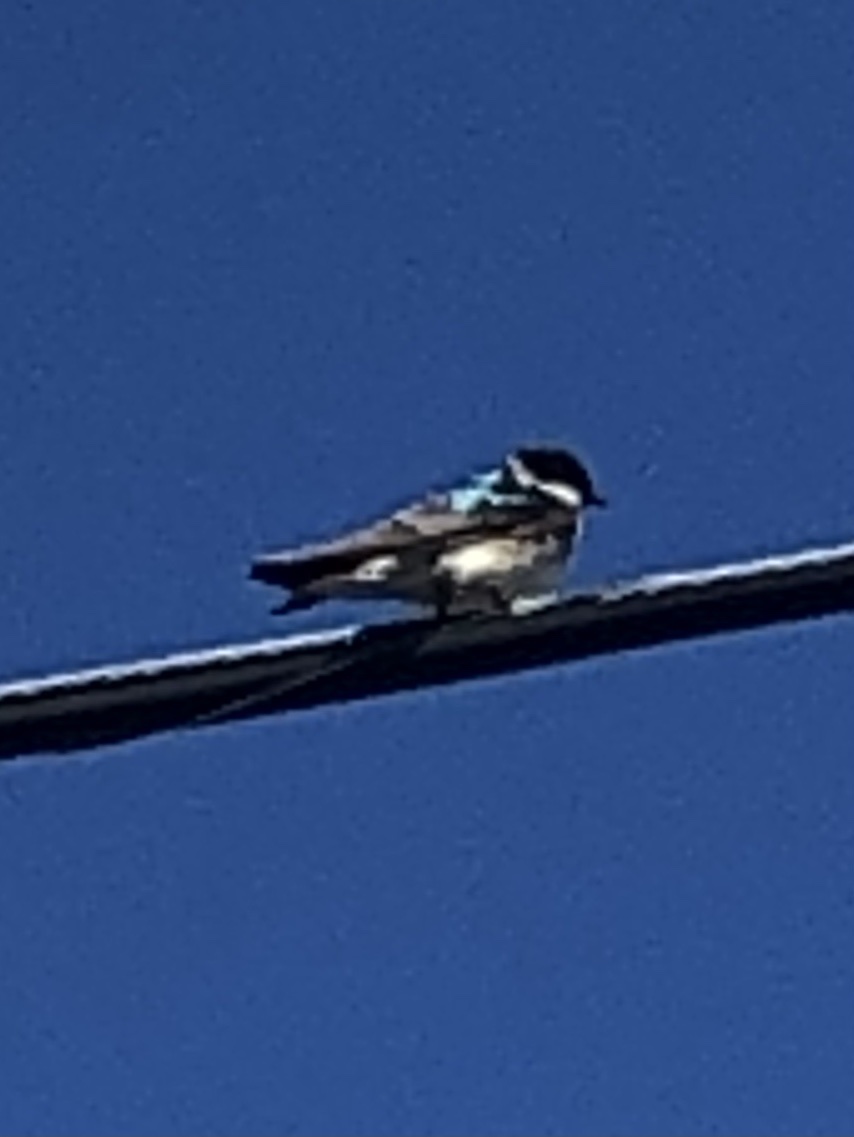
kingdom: Animalia
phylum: Chordata
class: Aves
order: Passeriformes
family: Hirundinidae
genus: Tachycineta
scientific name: Tachycineta bicolor
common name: Tree swallow
